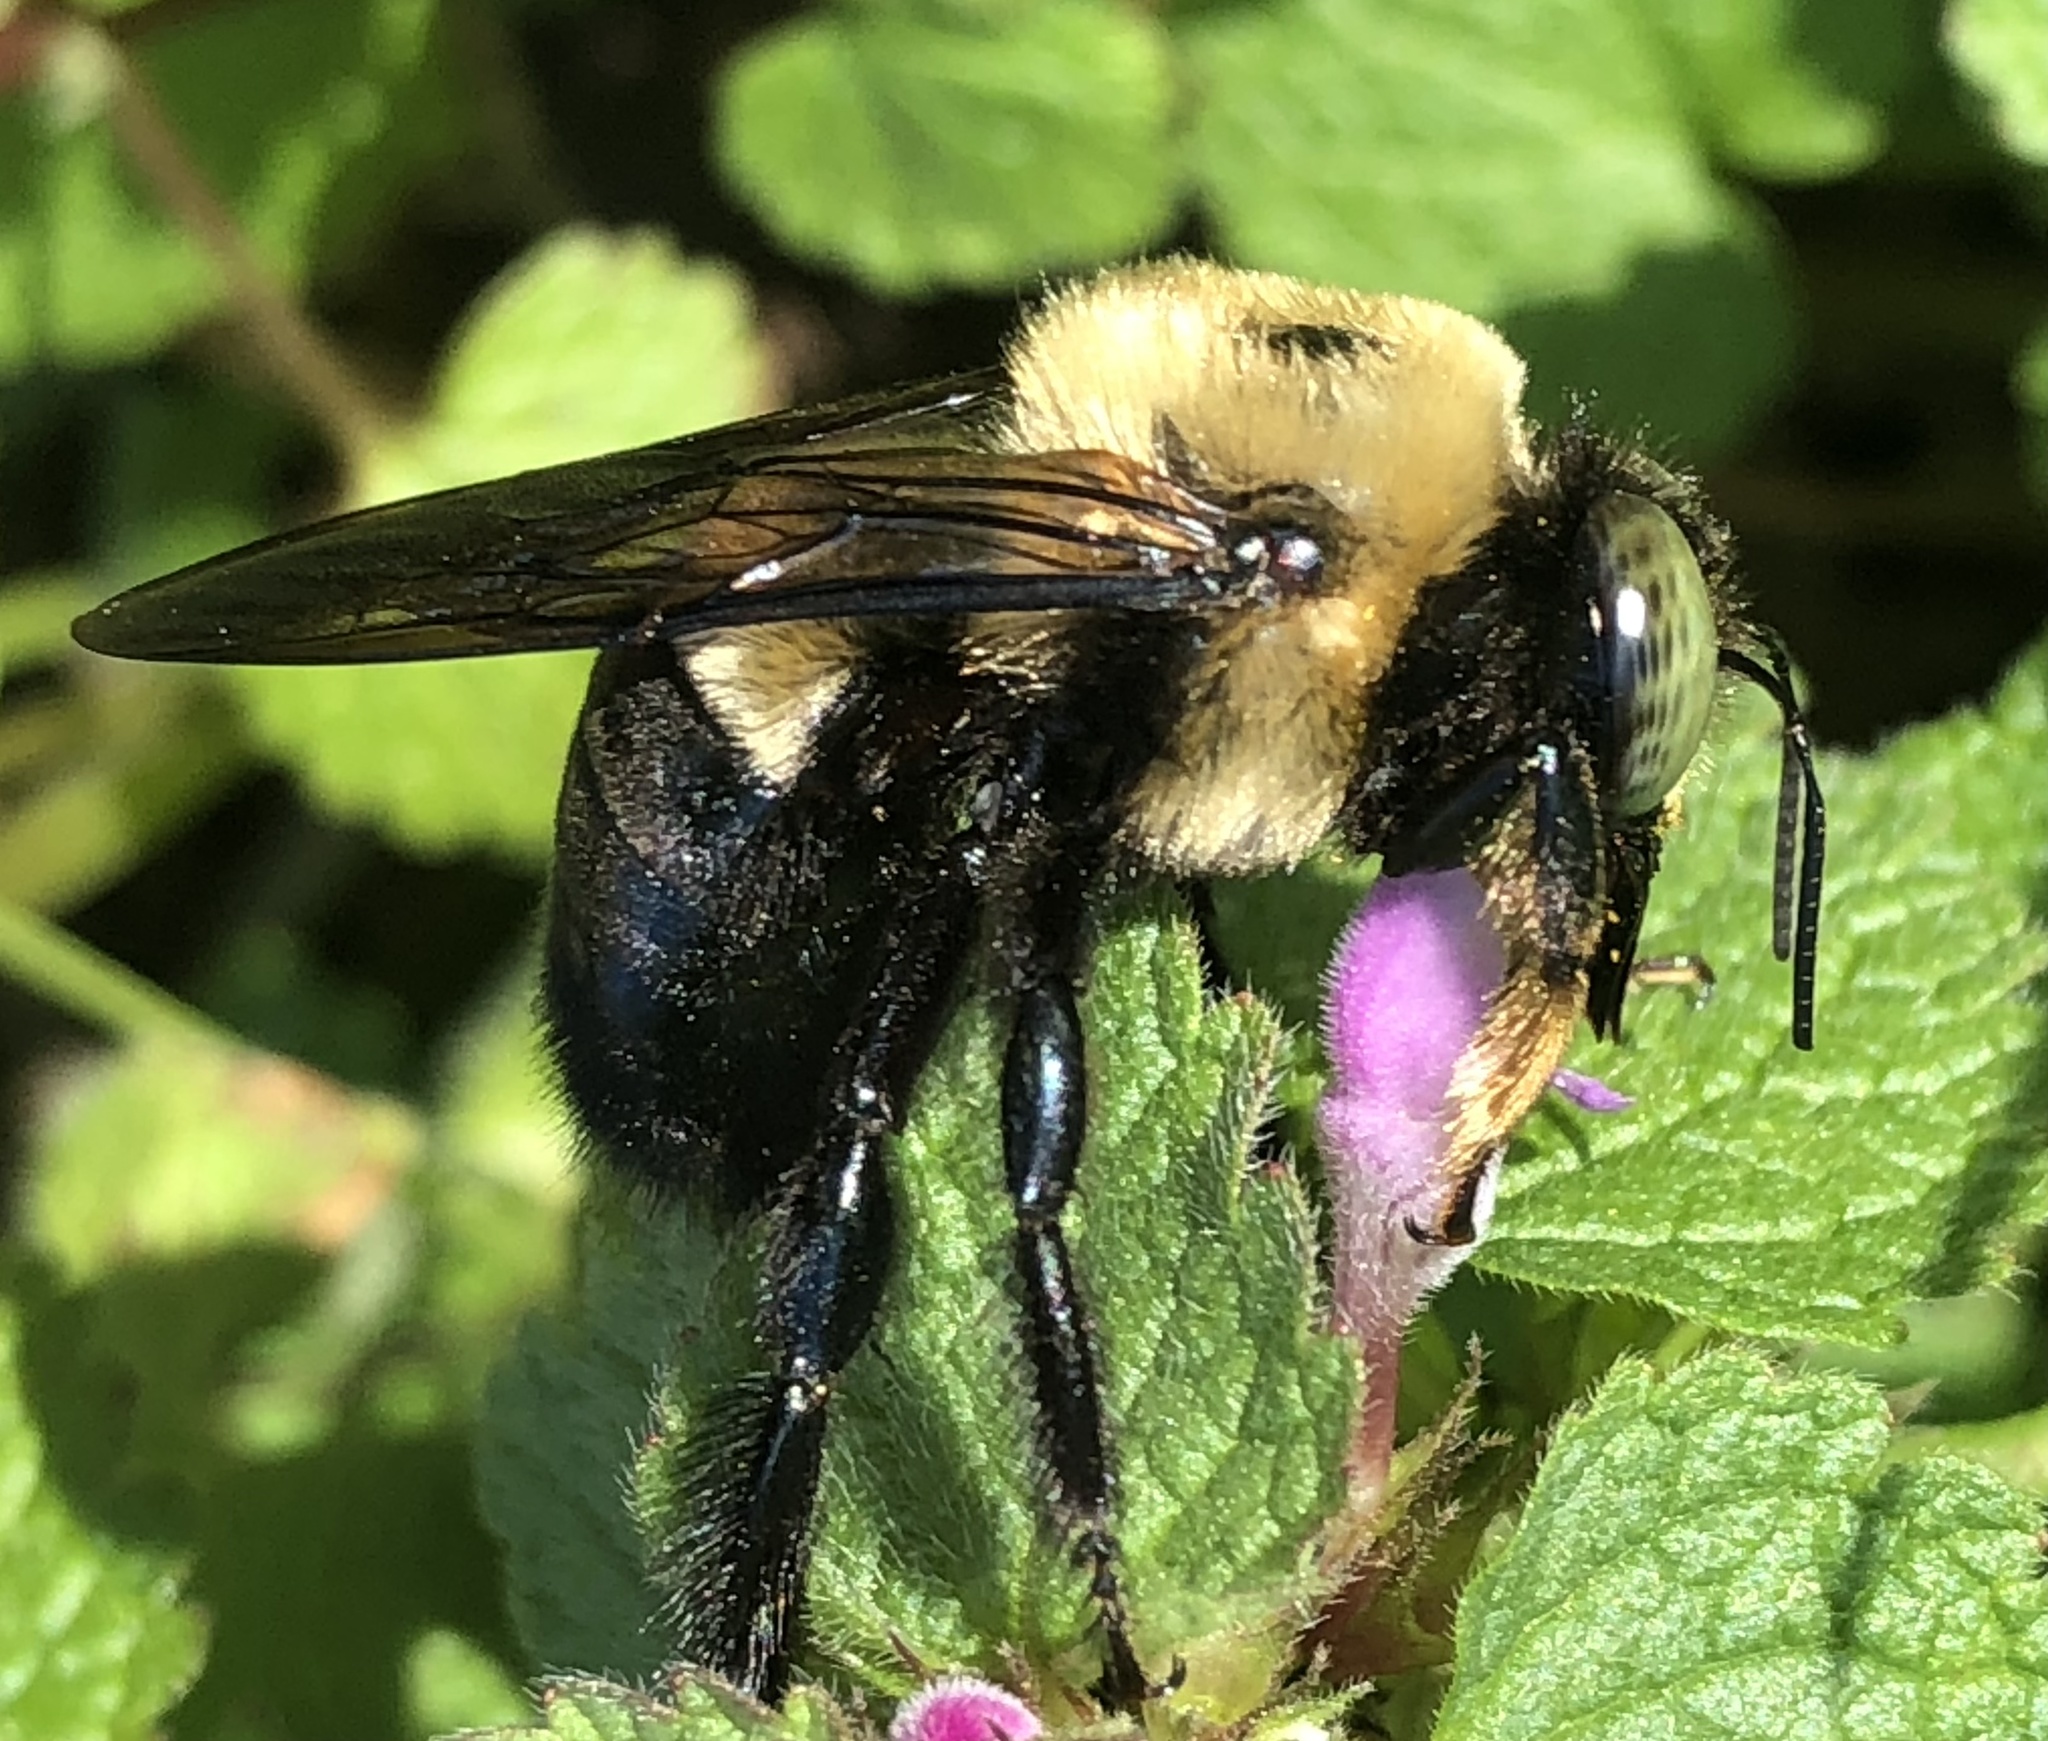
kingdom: Animalia
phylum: Arthropoda
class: Insecta
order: Hymenoptera
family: Apidae
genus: Xylocopa
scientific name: Xylocopa virginica
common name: Carpenter bee
